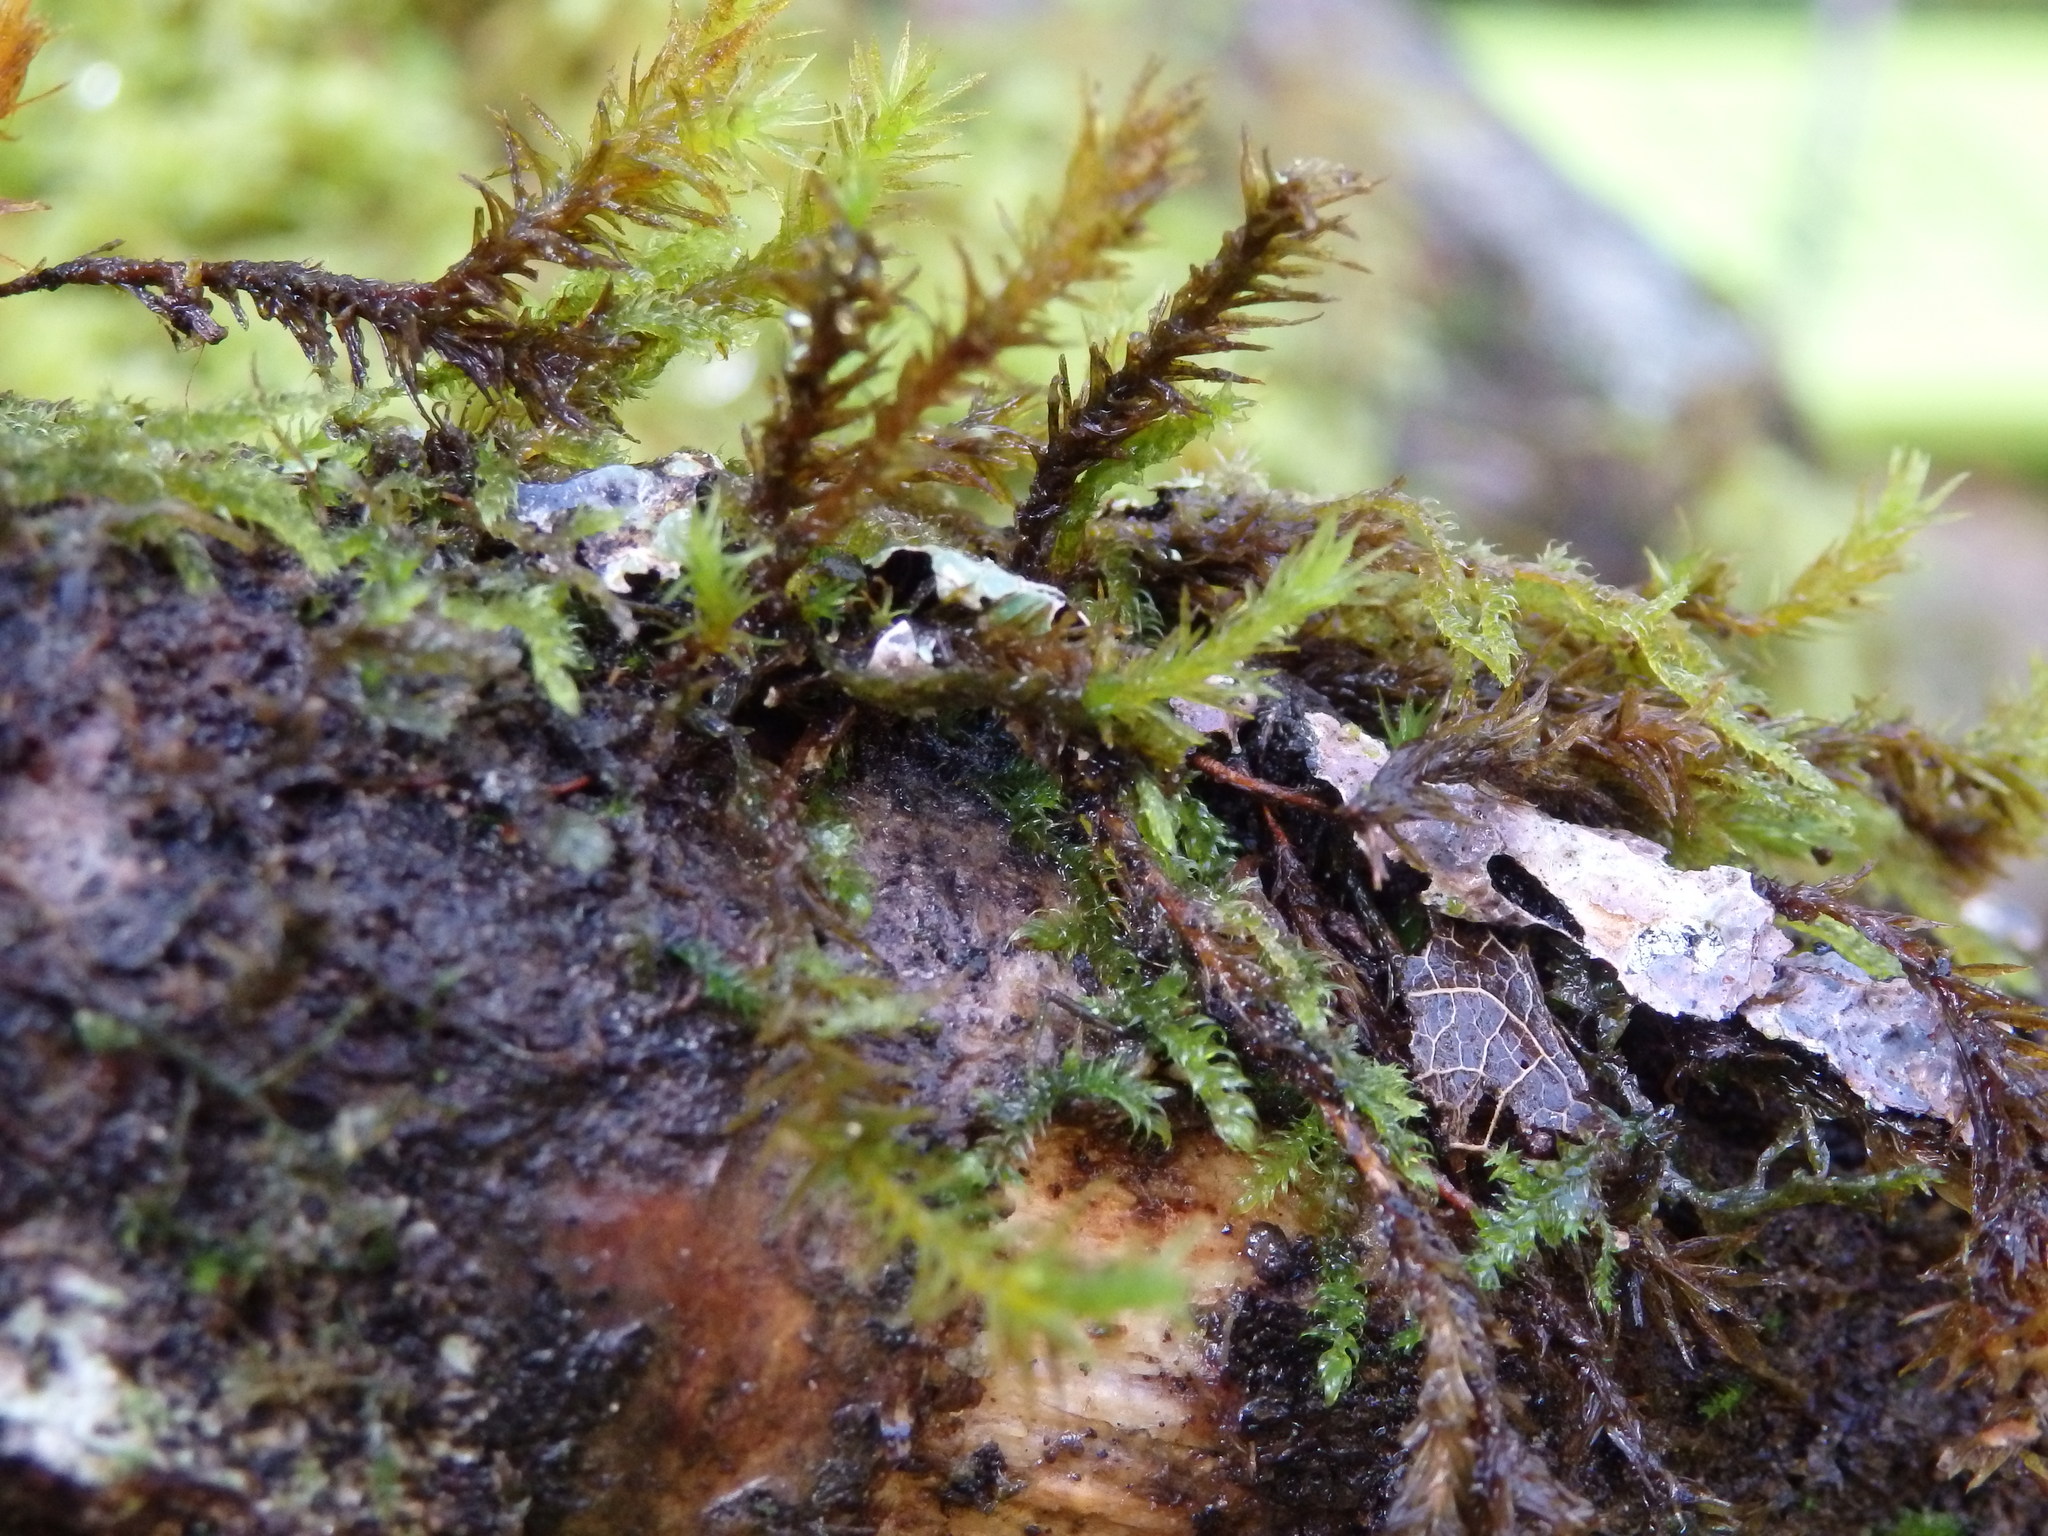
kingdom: Plantae
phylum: Bryophyta
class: Bryopsida
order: Orthotrichales
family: Orthotrichaceae
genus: Pulvigera
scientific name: Pulvigera lyellii
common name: Lyell's bristle-moss
